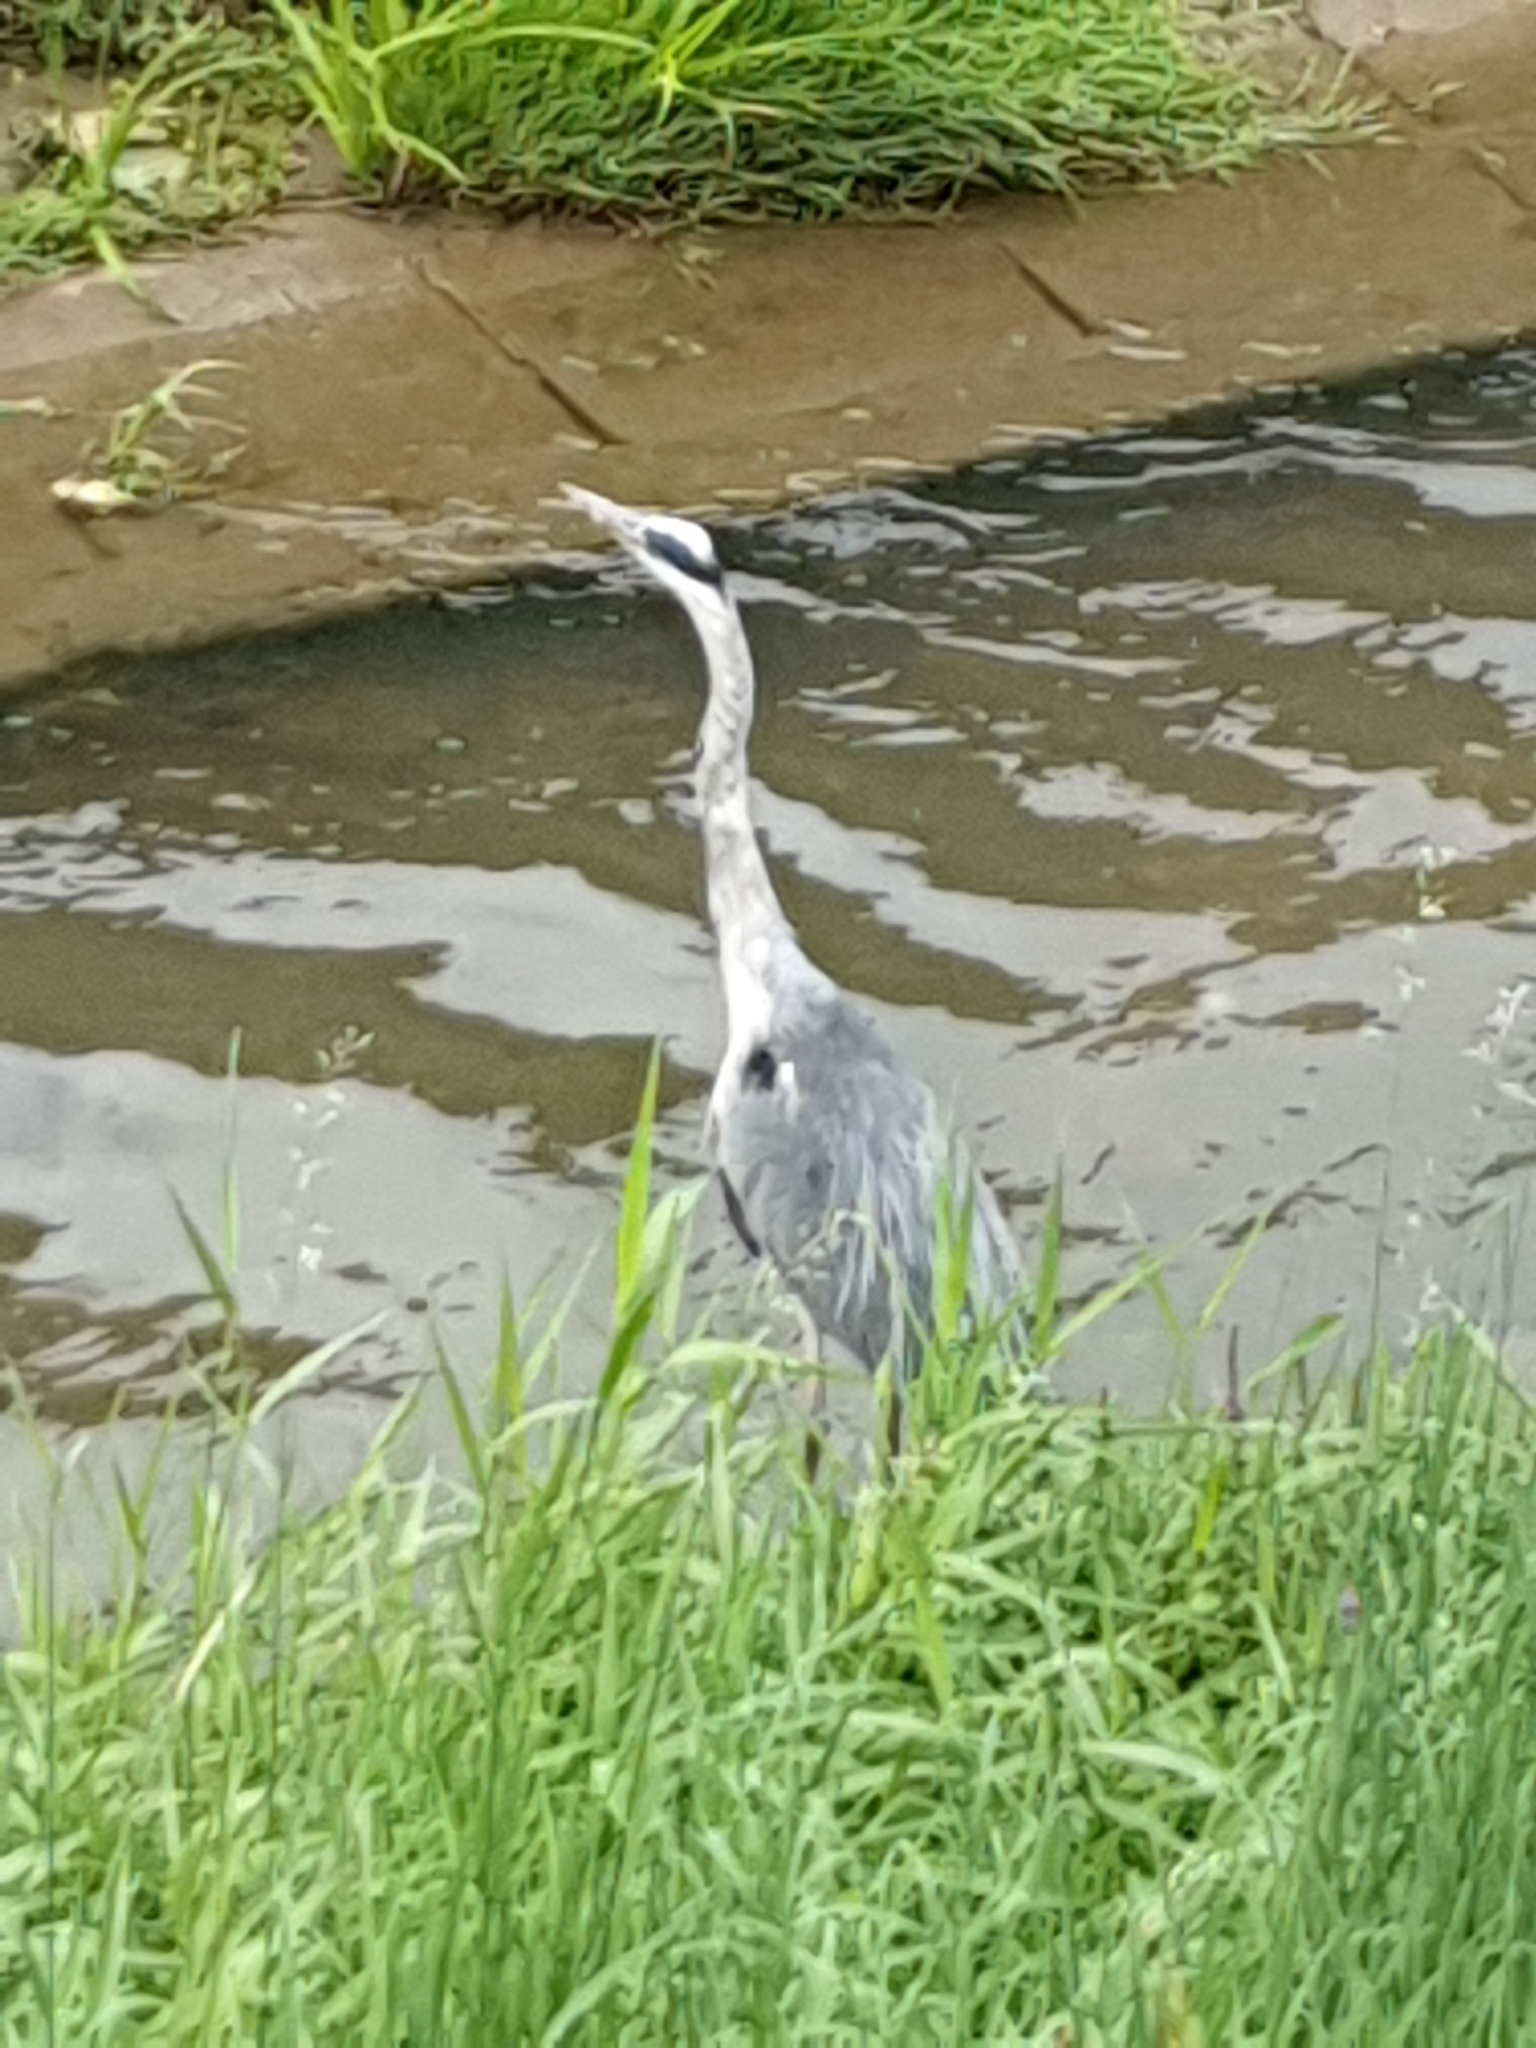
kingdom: Animalia
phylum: Chordata
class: Aves
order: Pelecaniformes
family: Ardeidae
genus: Ardea
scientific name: Ardea cinerea
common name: Grey heron
